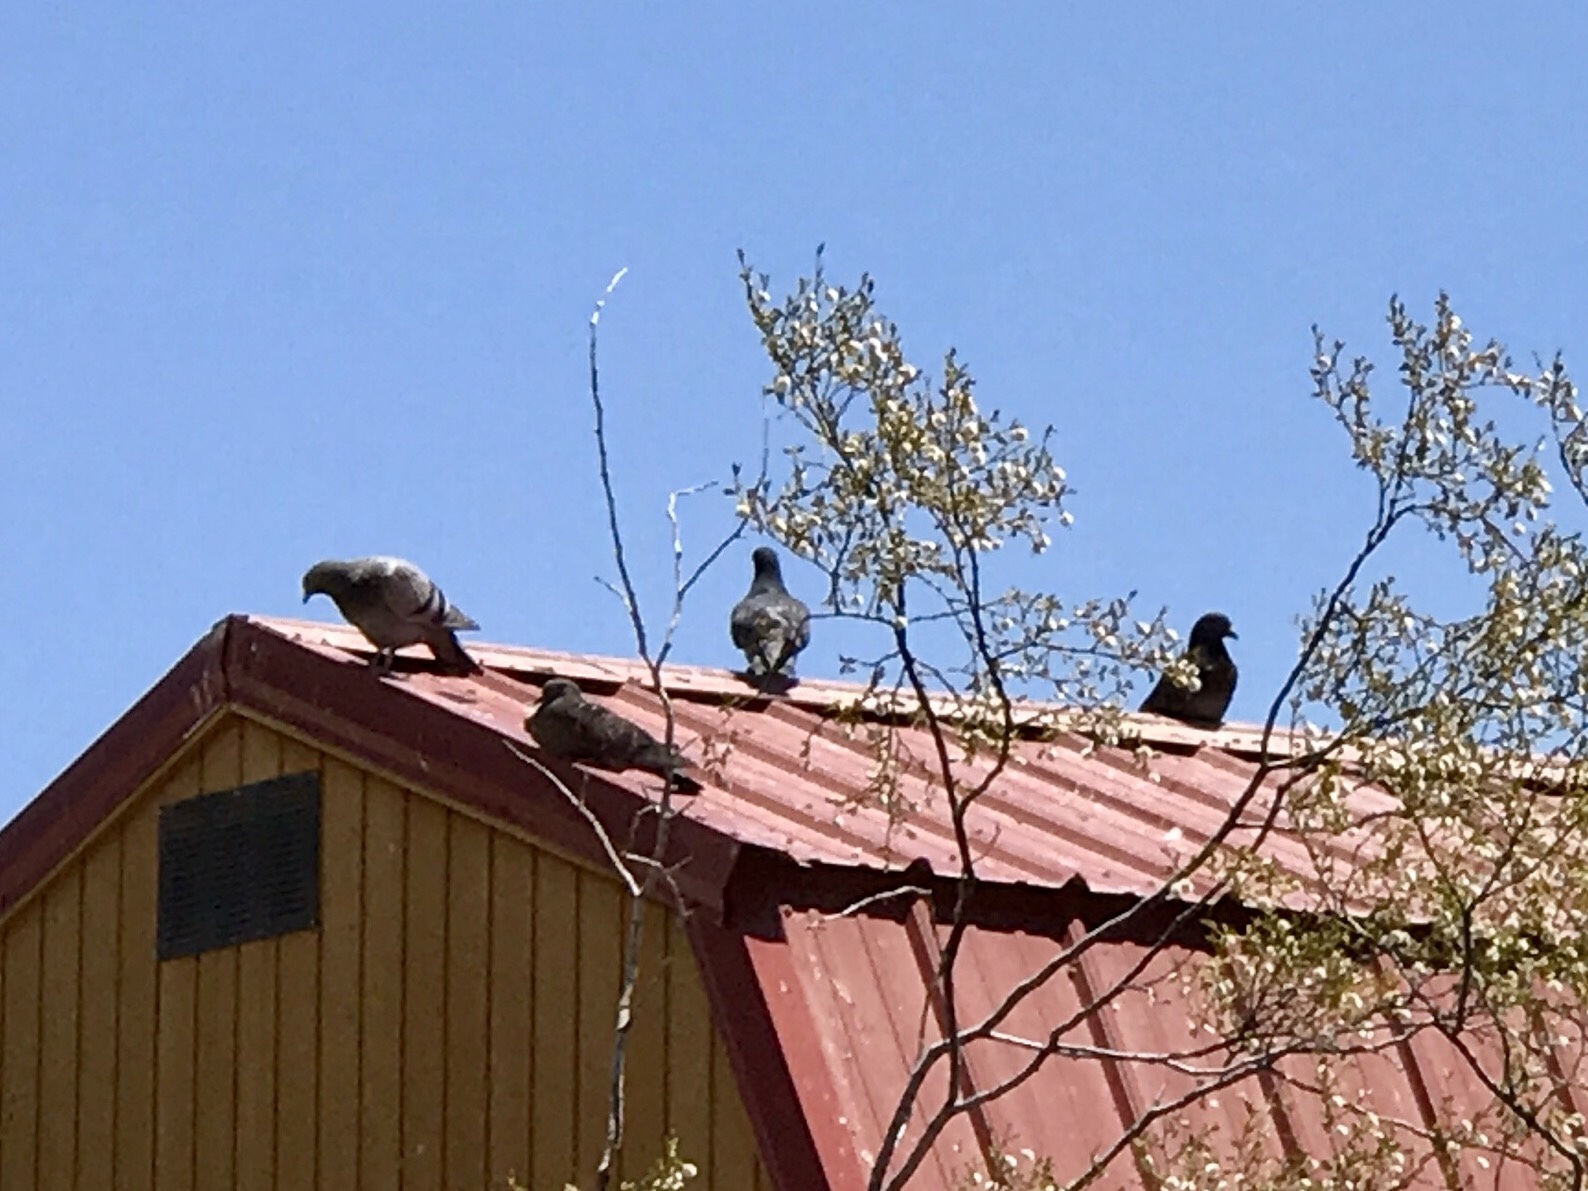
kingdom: Animalia
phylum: Chordata
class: Aves
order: Columbiformes
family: Columbidae
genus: Columba
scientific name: Columba livia
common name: Rock pigeon
